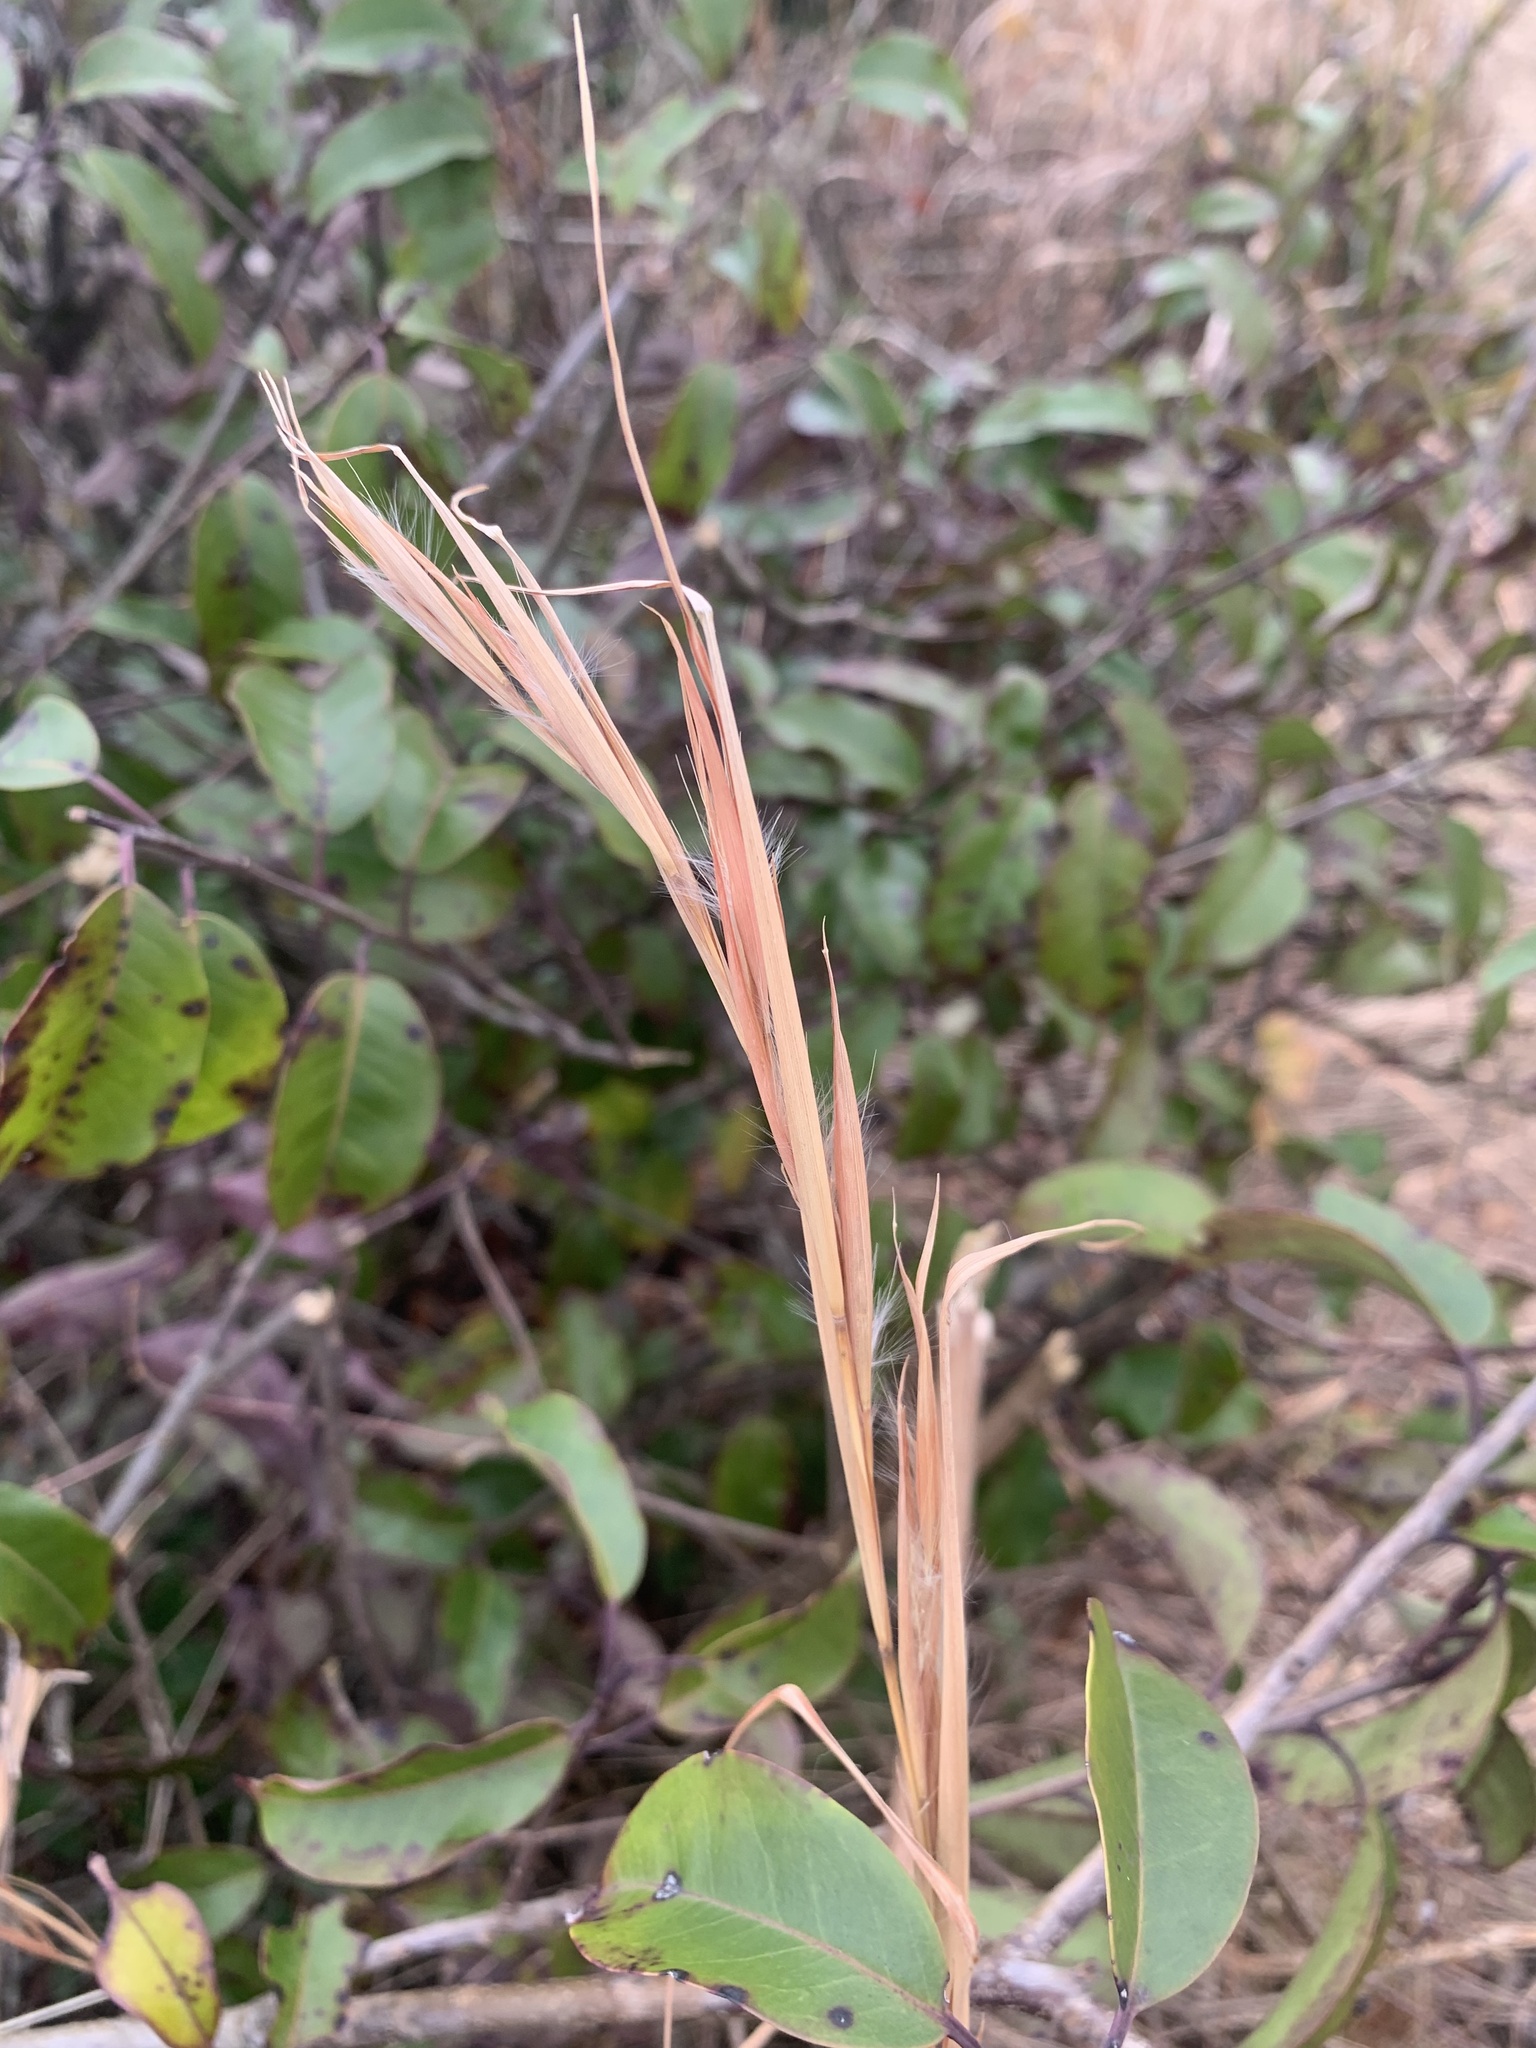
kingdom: Plantae
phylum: Tracheophyta
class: Liliopsida
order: Poales
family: Poaceae
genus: Andropogon
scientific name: Andropogon virginicus
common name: Broomsedge bluestem
